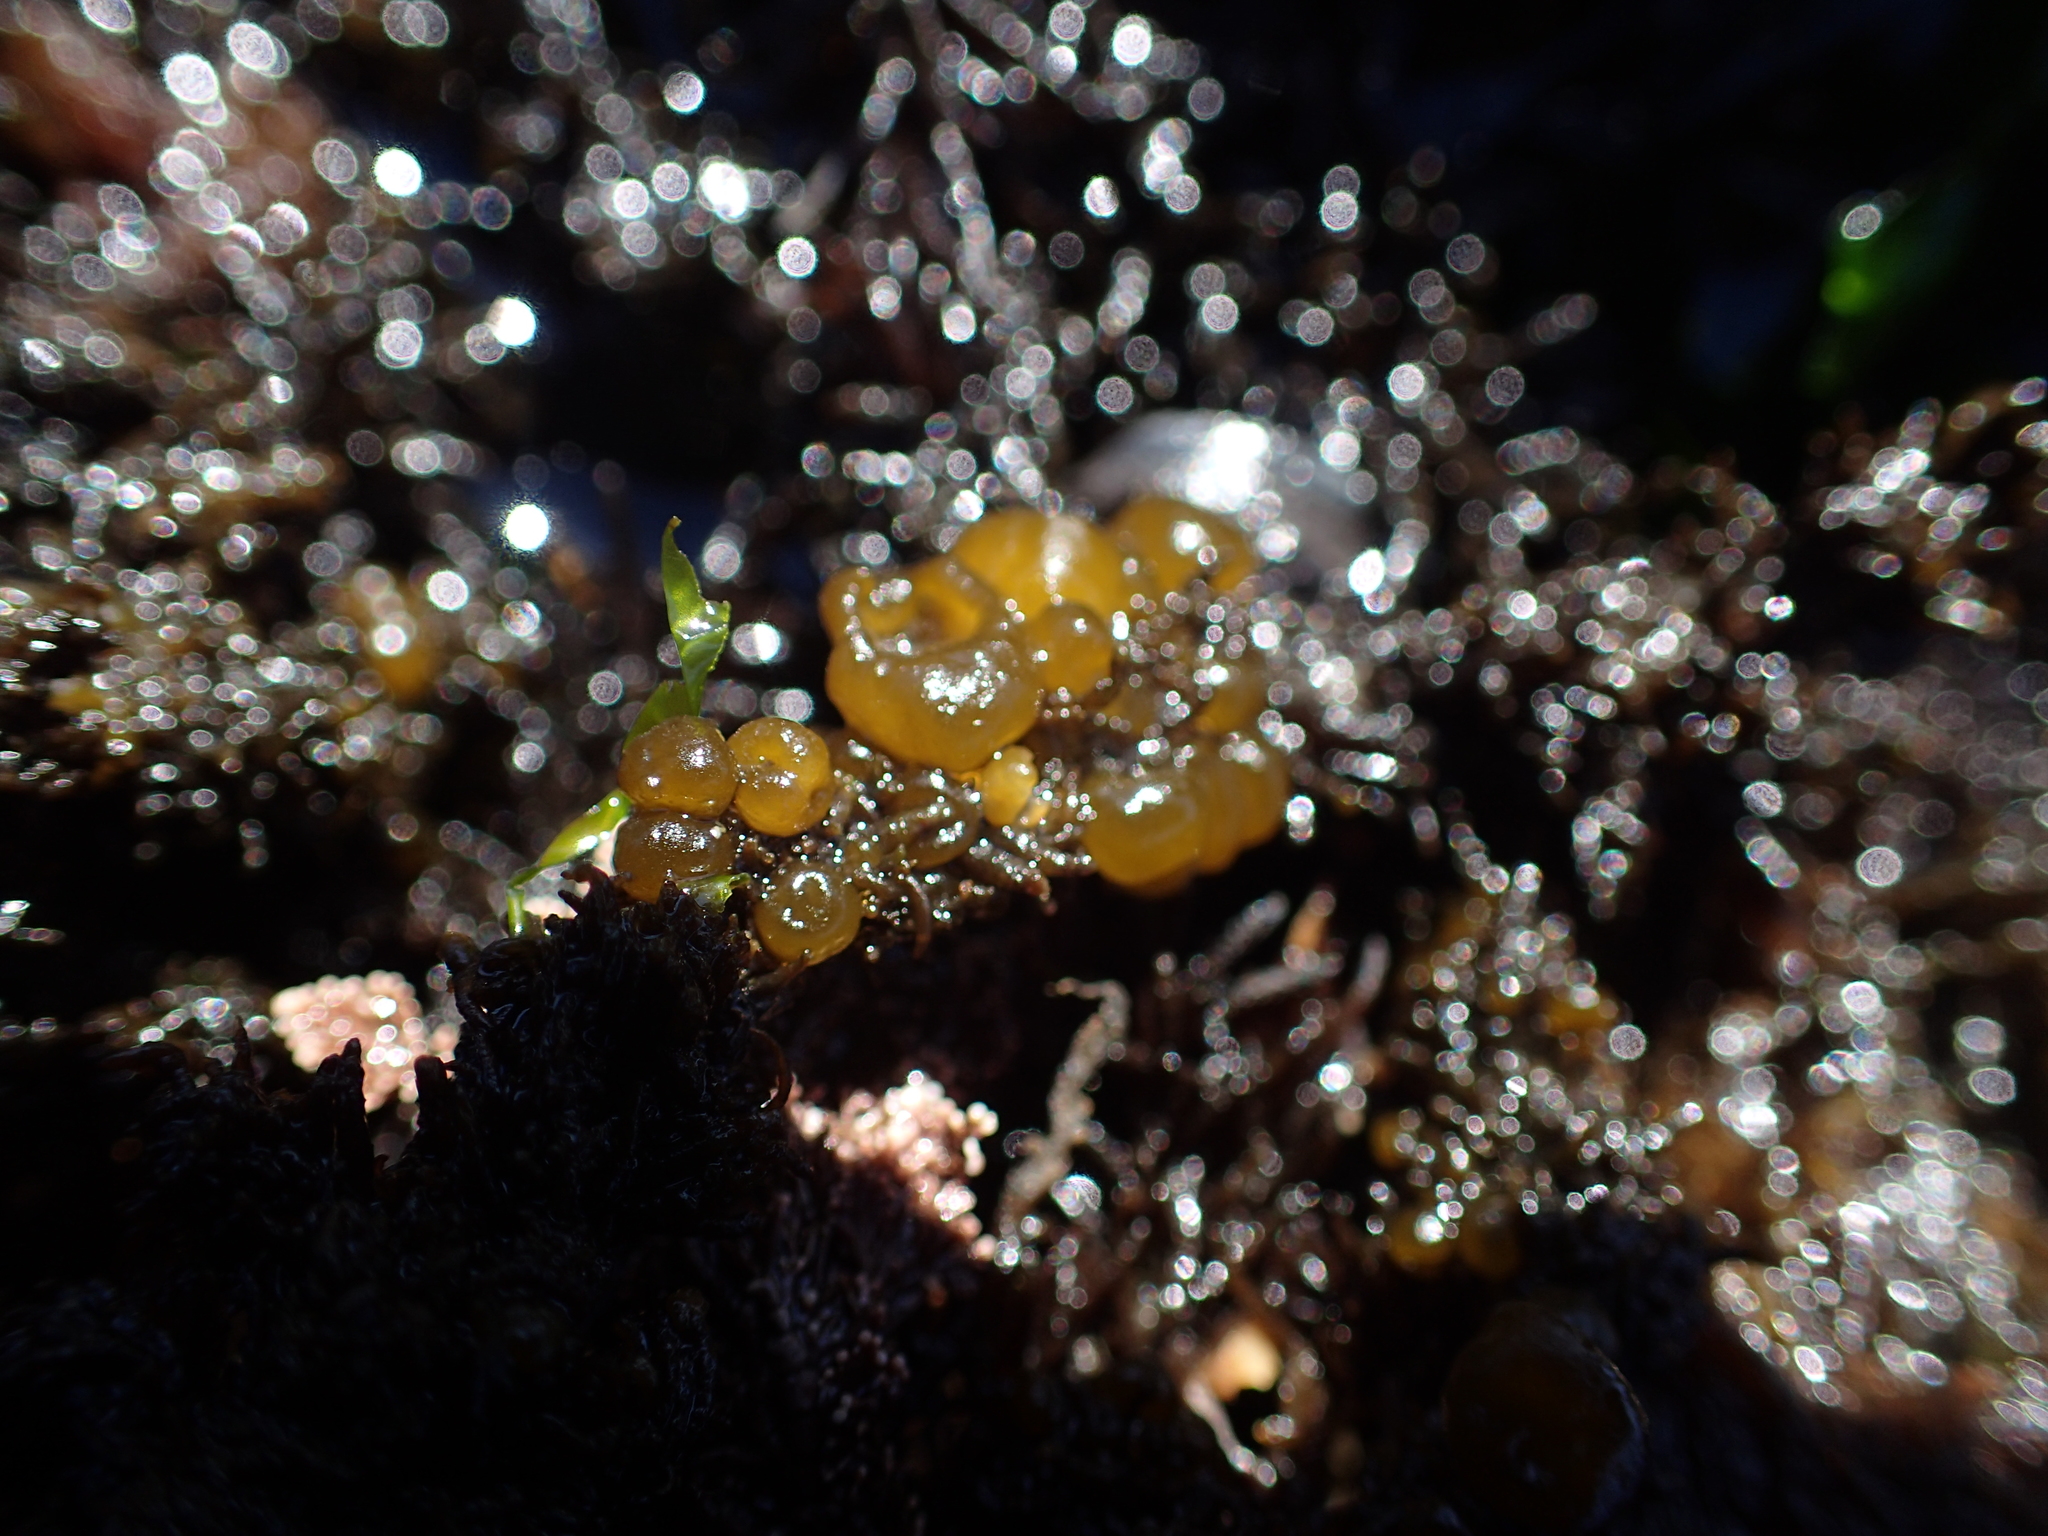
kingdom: Chromista
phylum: Ochrophyta
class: Phaeophyceae
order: Scytosiphonales
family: Scytosiphonaceae
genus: Colpomenia
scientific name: Colpomenia peregrina
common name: Oyster thief
